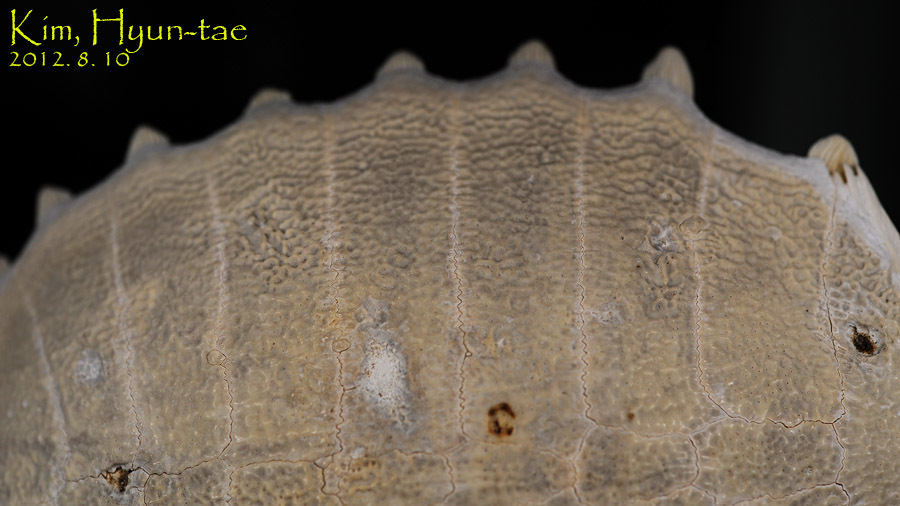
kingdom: Animalia
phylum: Chordata
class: Testudines
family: Trionychidae
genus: Pelodiscus
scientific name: Pelodiscus sinensis
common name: Chinese softshell turtle
